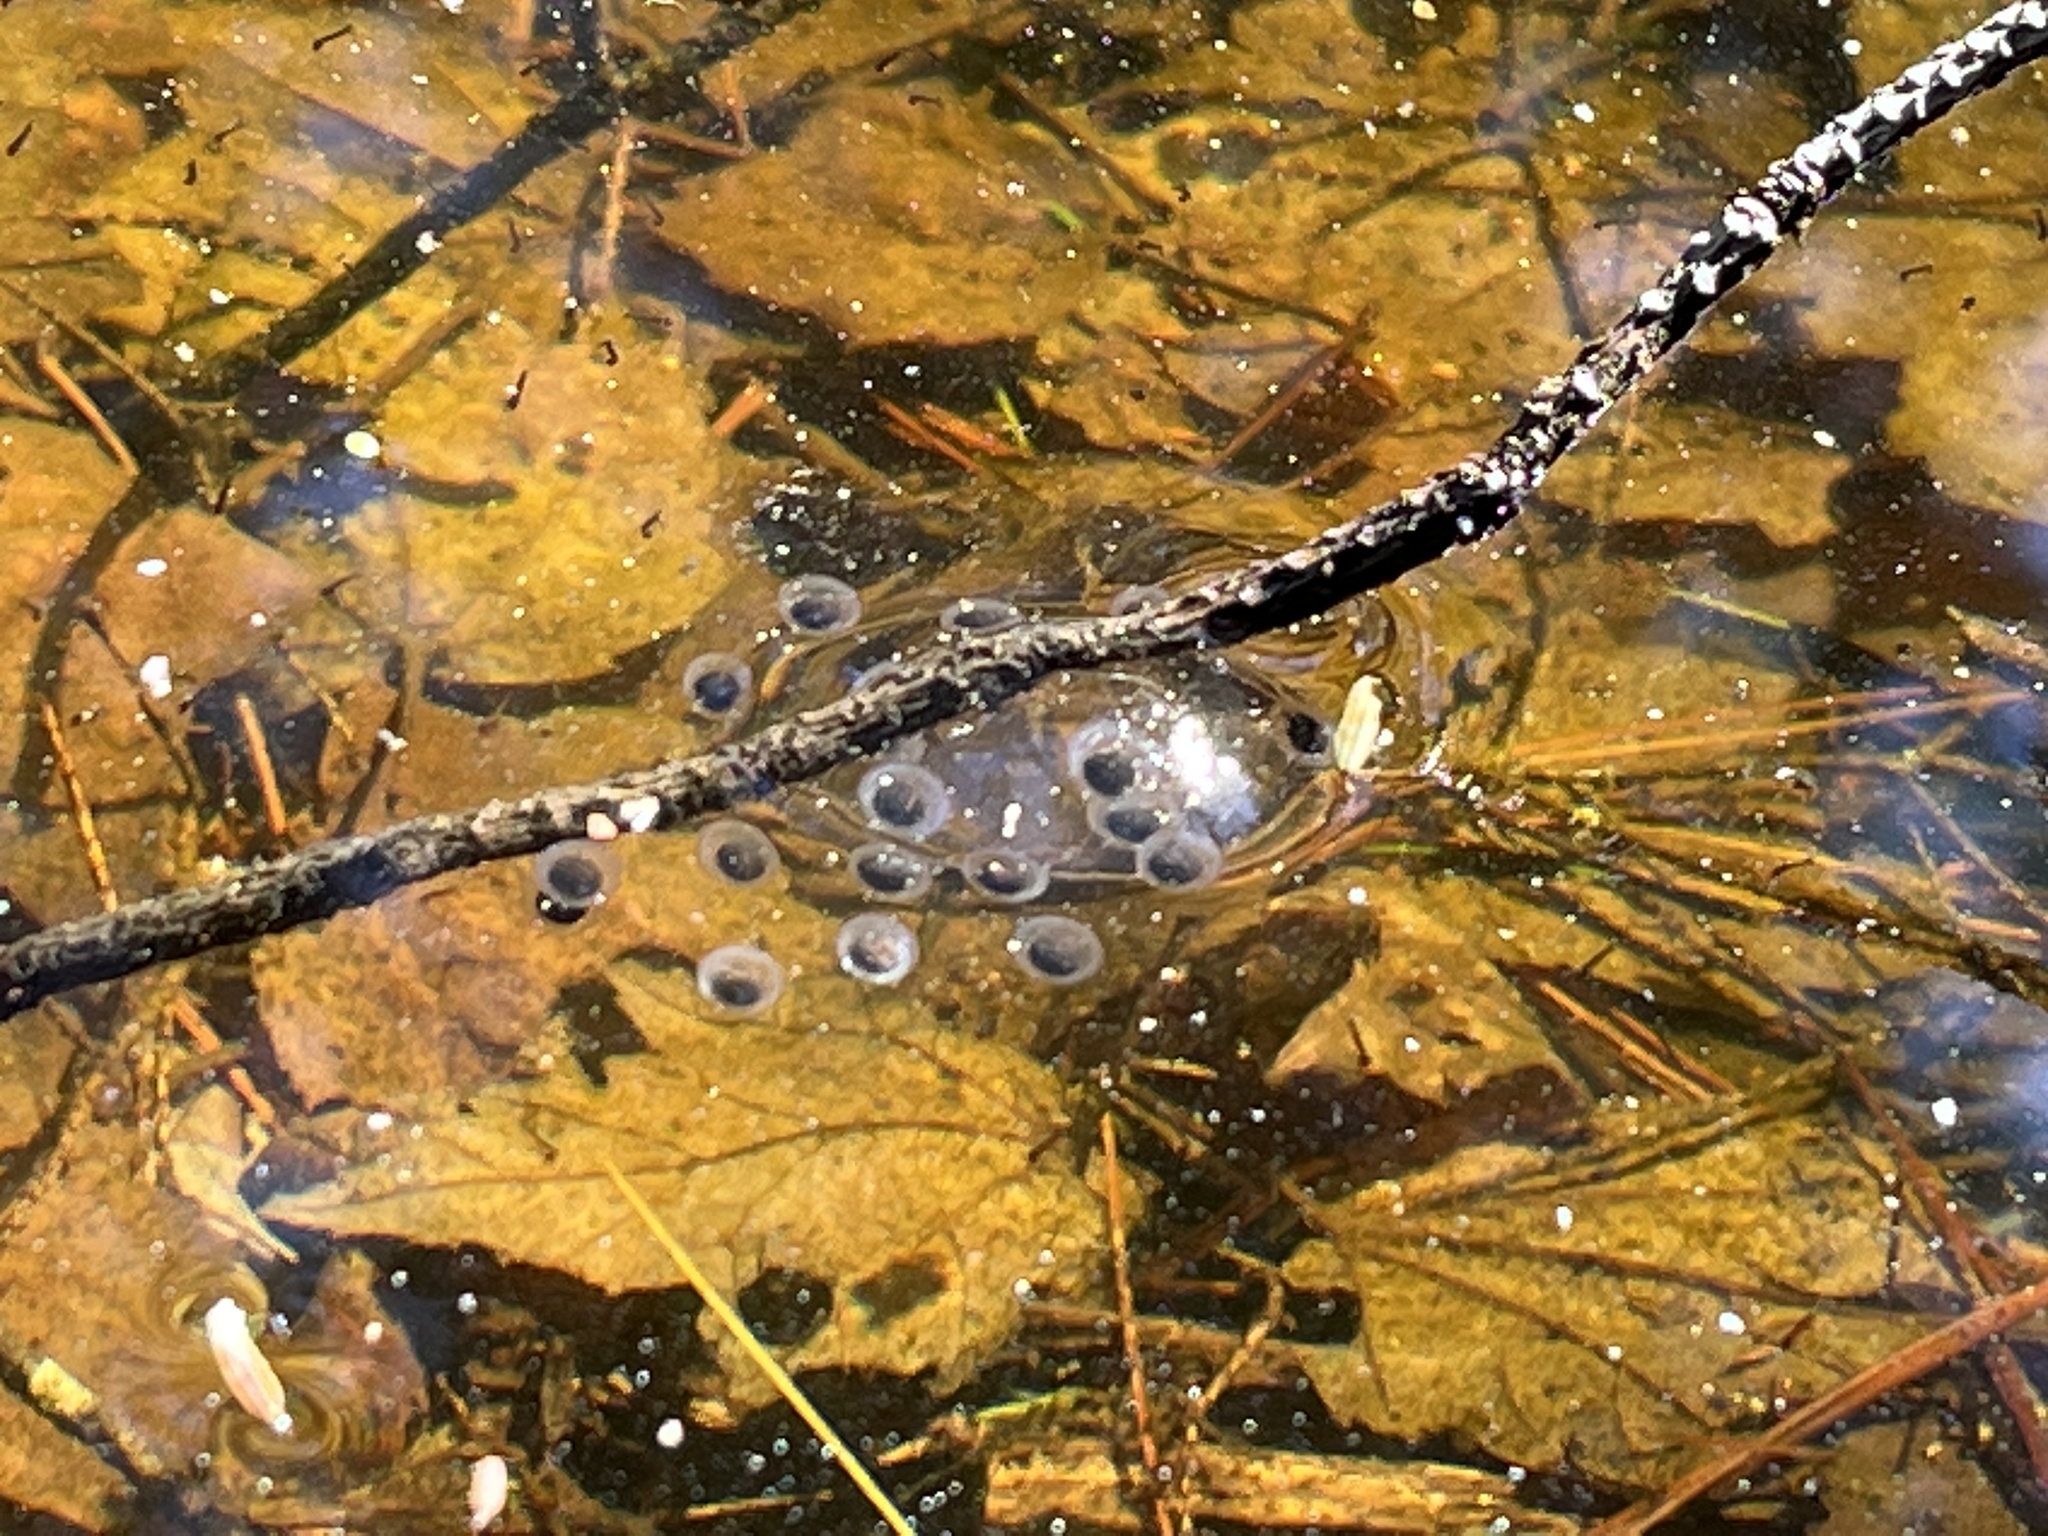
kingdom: Animalia
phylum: Chordata
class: Amphibia
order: Caudata
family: Ambystomatidae
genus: Ambystoma
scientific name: Ambystoma jeffersonianum
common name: Jefferson salamander
